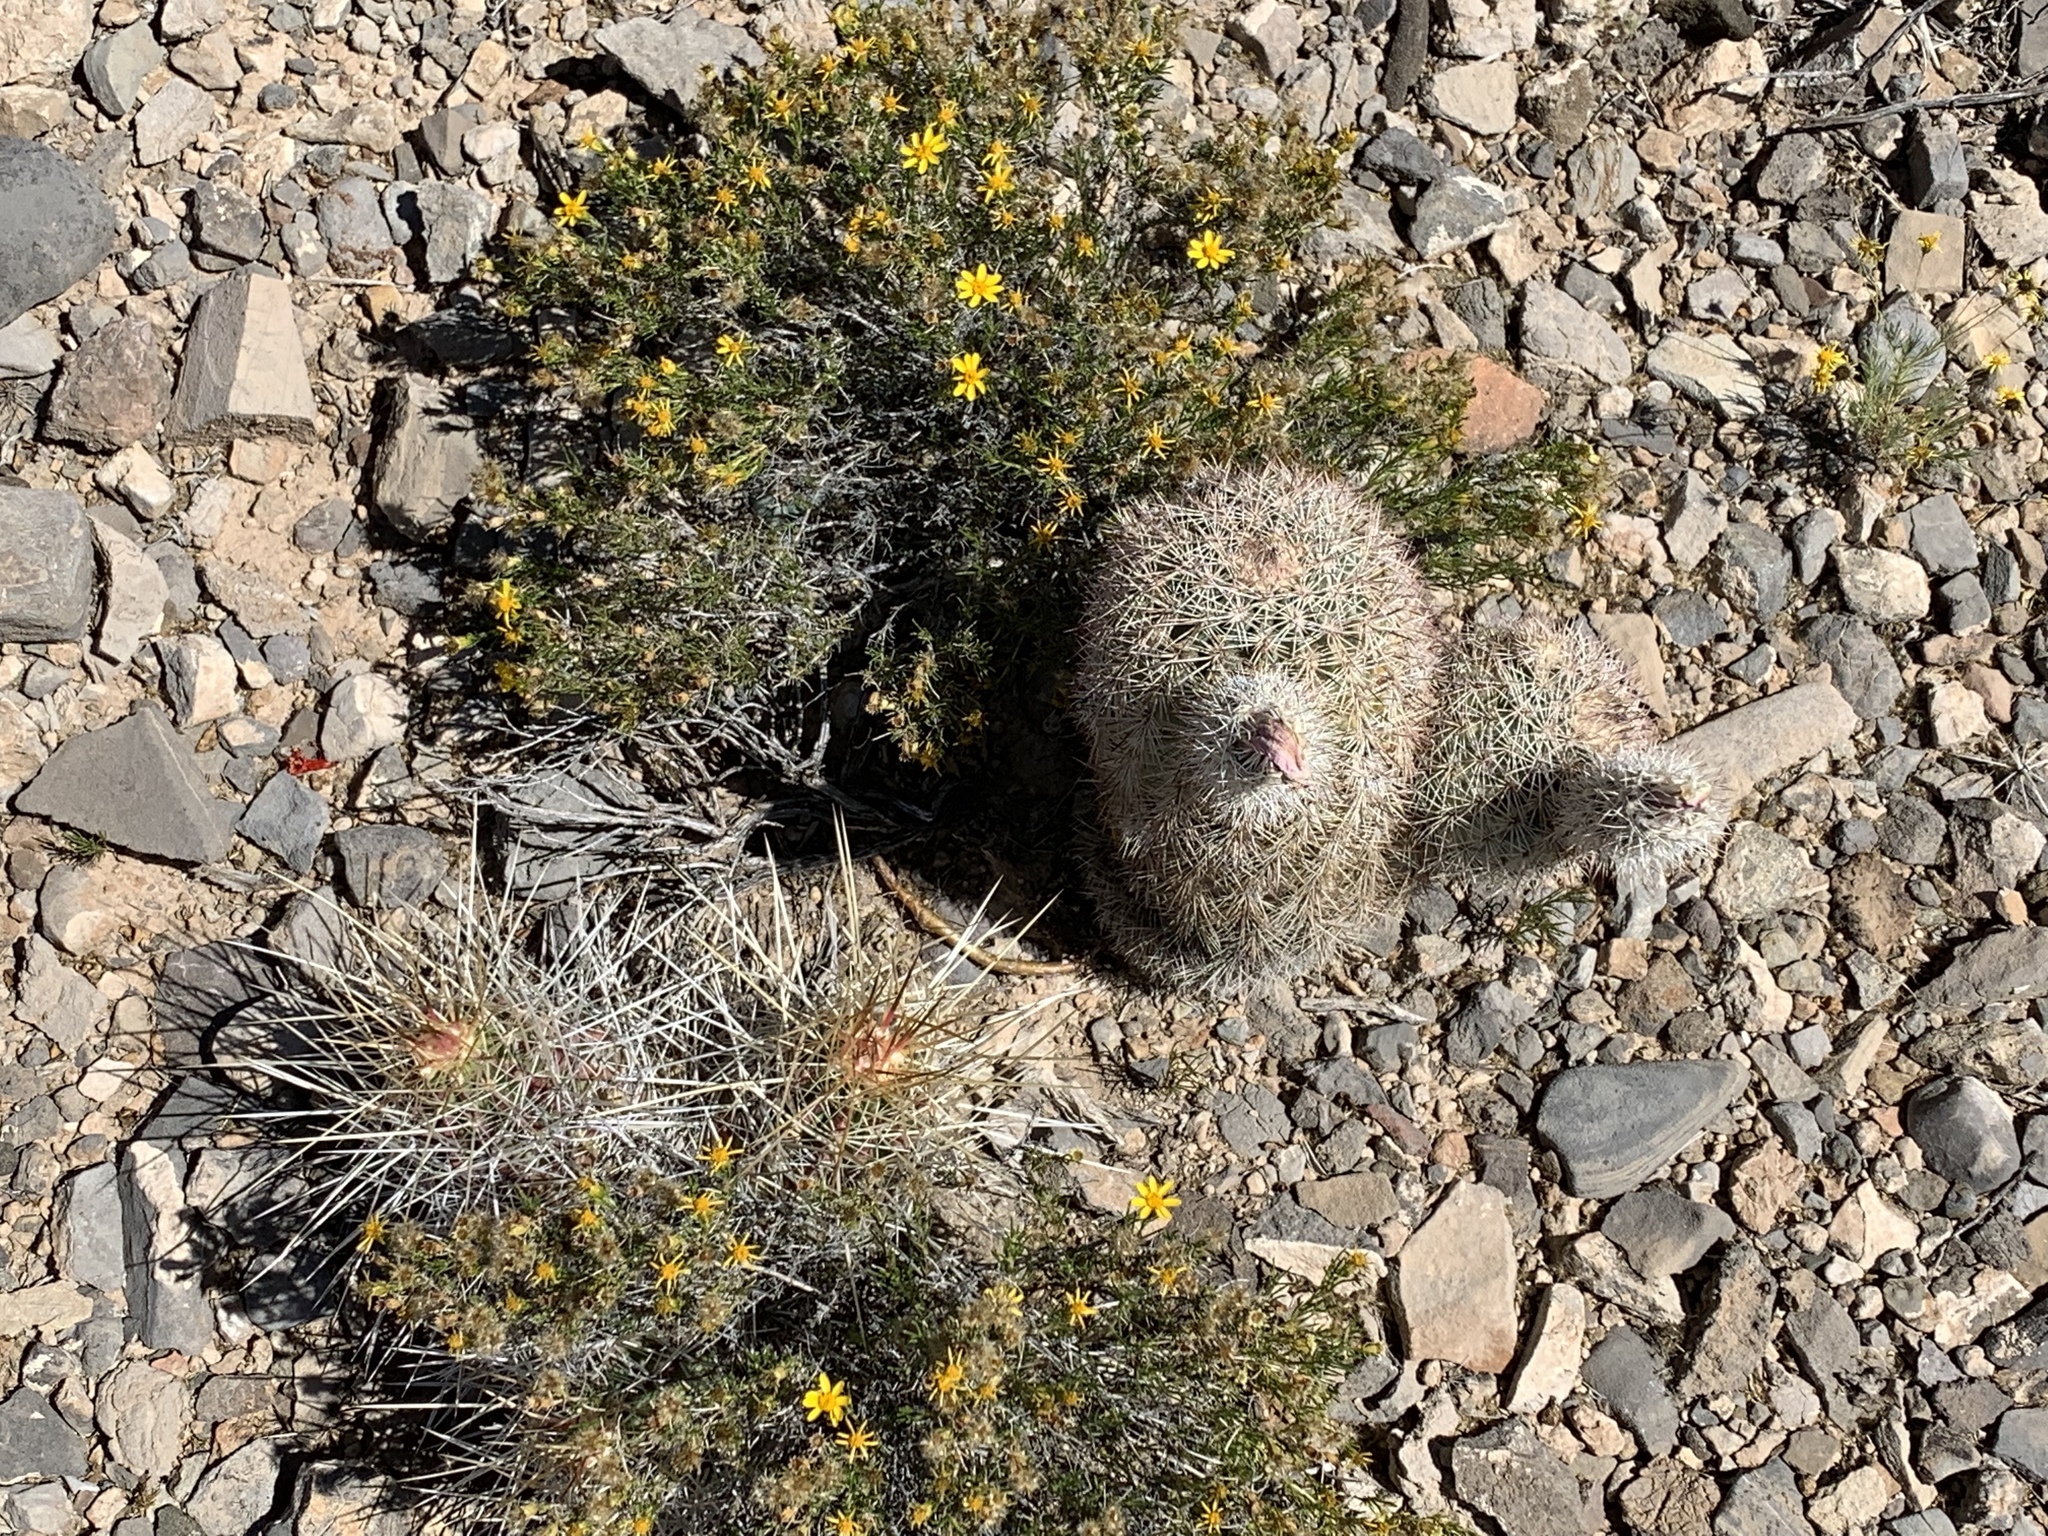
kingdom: Plantae
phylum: Tracheophyta
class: Magnoliopsida
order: Caryophyllales
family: Cactaceae
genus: Echinocereus
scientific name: Echinocereus stramineus
